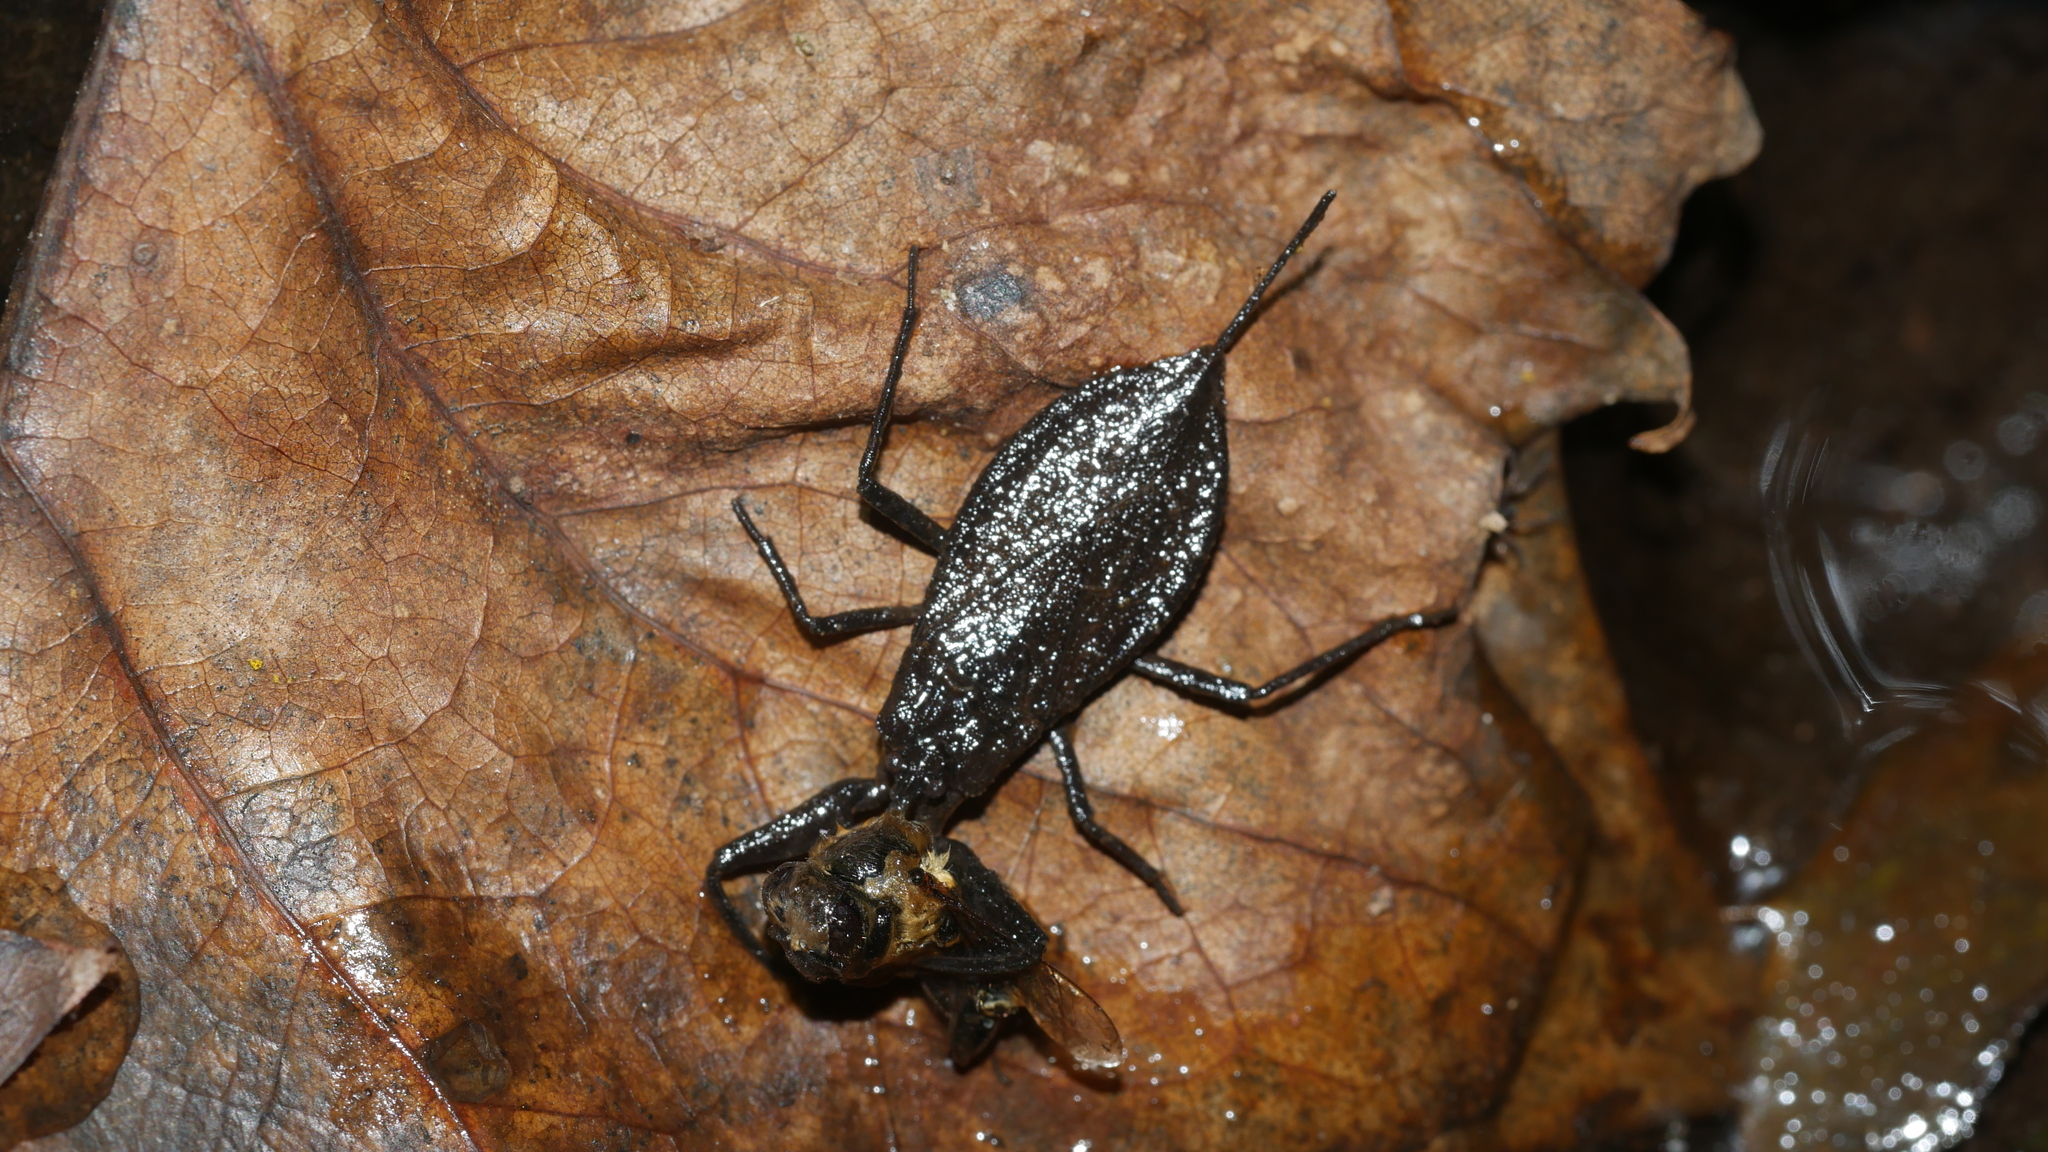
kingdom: Animalia
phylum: Arthropoda
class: Insecta
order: Hemiptera
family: Nepidae
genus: Nepa
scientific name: Nepa apiculata
